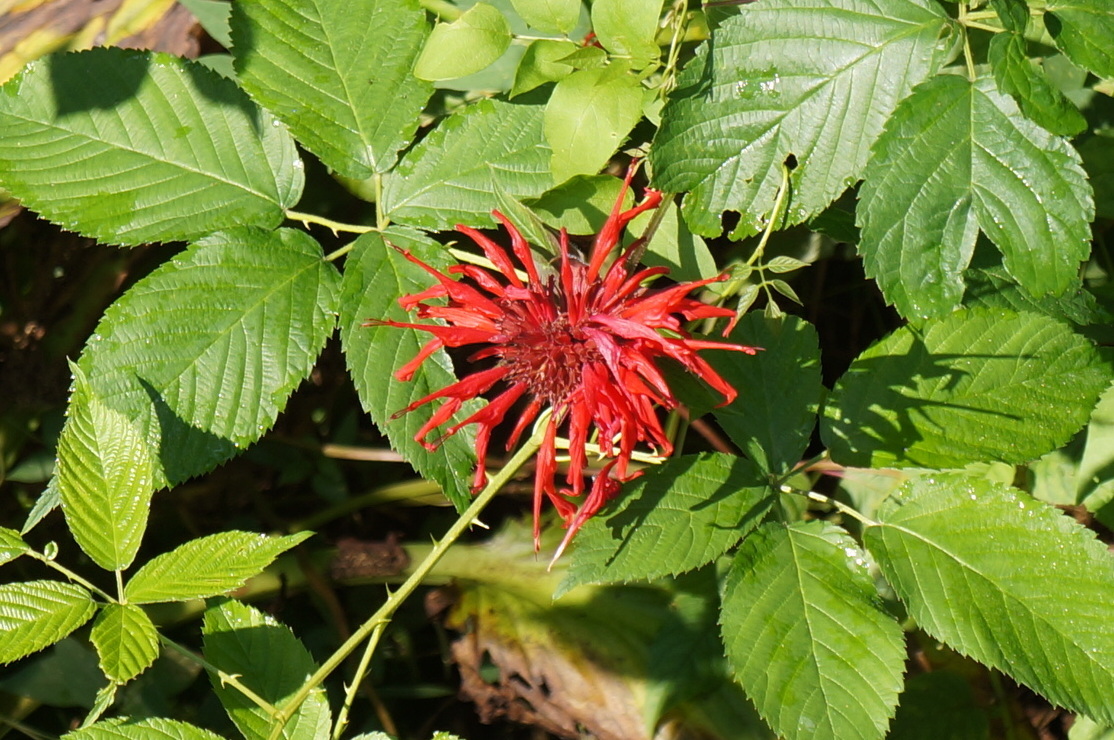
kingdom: Plantae
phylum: Tracheophyta
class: Magnoliopsida
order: Lamiales
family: Lamiaceae
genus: Monarda
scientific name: Monarda didyma
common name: Beebalm
